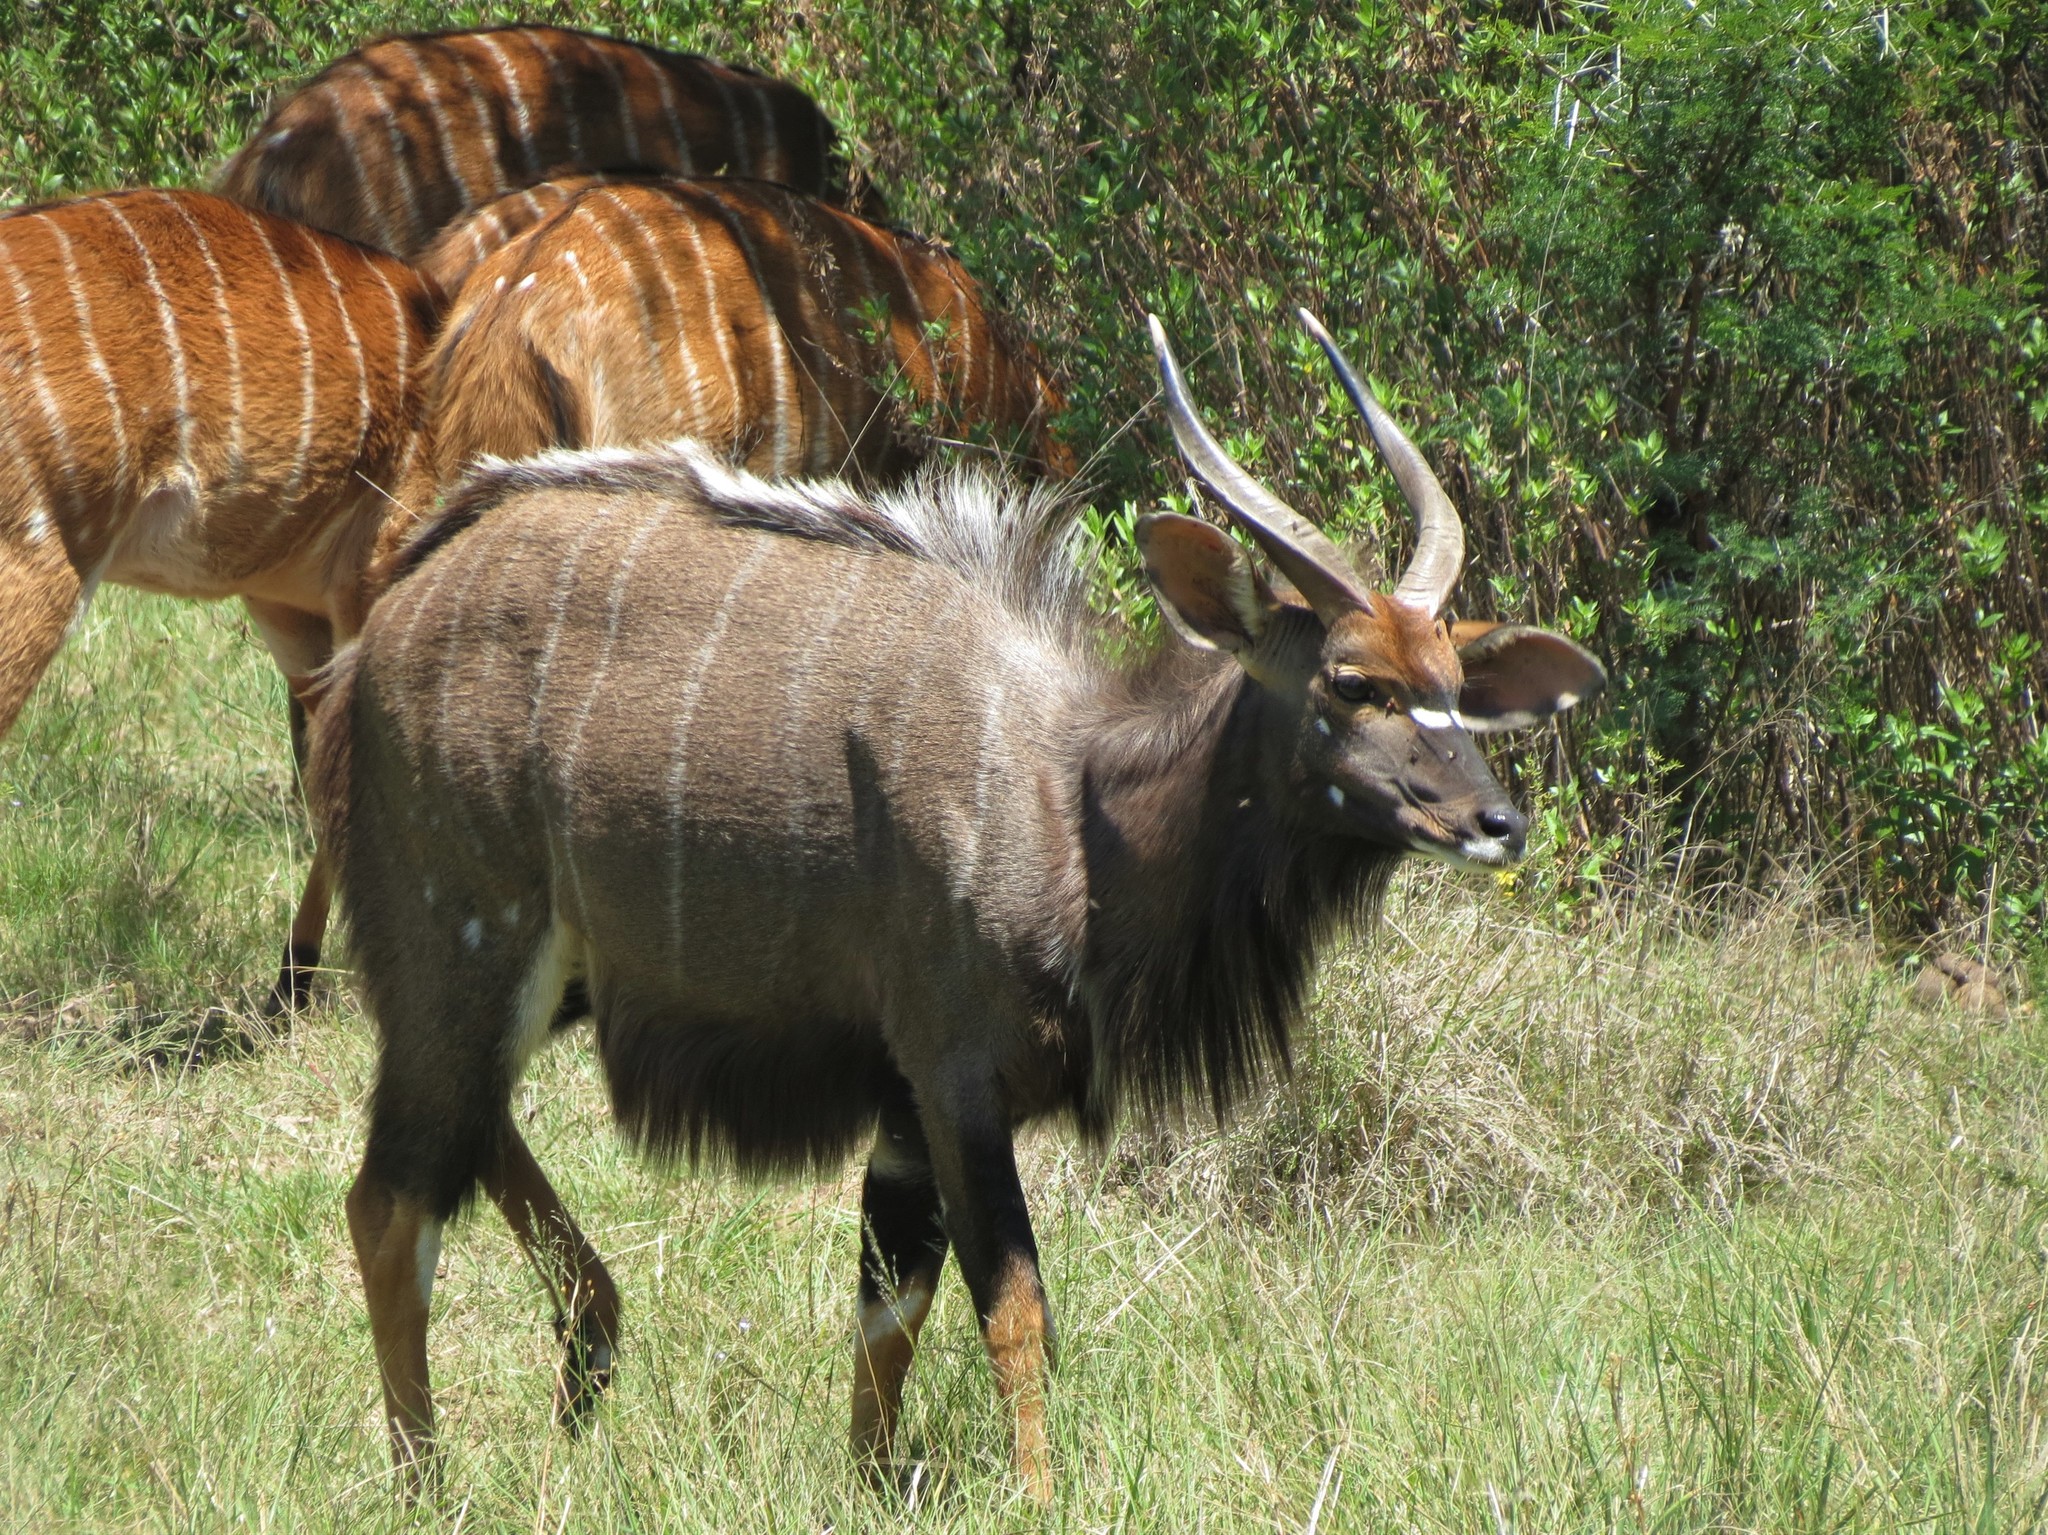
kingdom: Animalia
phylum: Chordata
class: Mammalia
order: Artiodactyla
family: Bovidae
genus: Tragelaphus
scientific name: Tragelaphus angasii
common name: Nyala
